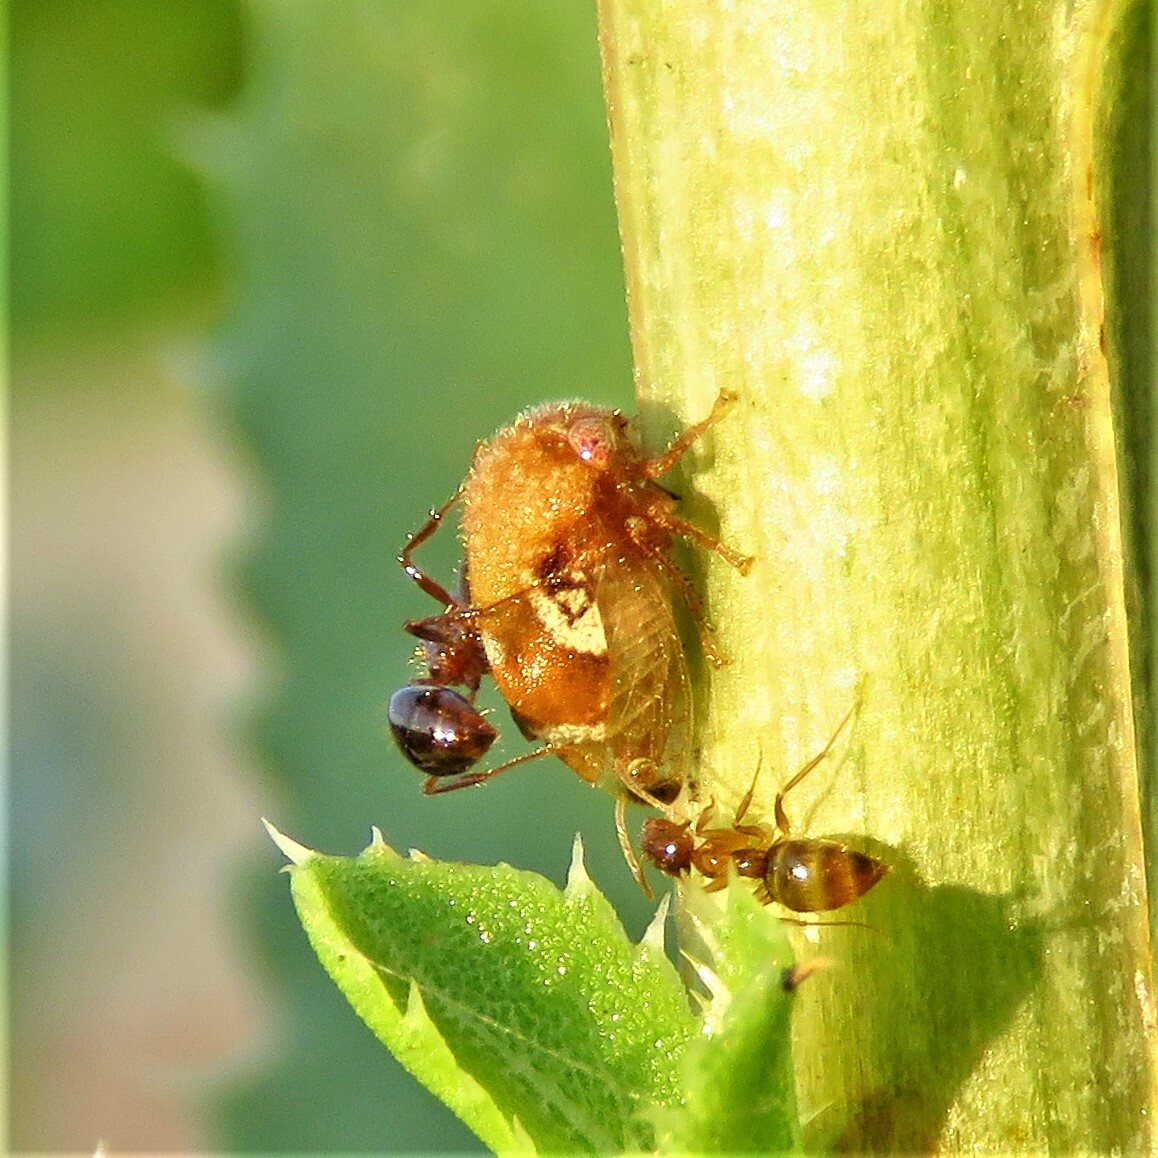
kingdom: Animalia
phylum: Arthropoda
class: Insecta
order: Hemiptera
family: Membracidae
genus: Vanduzea
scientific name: Vanduzea segmentata
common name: Membracid bug
